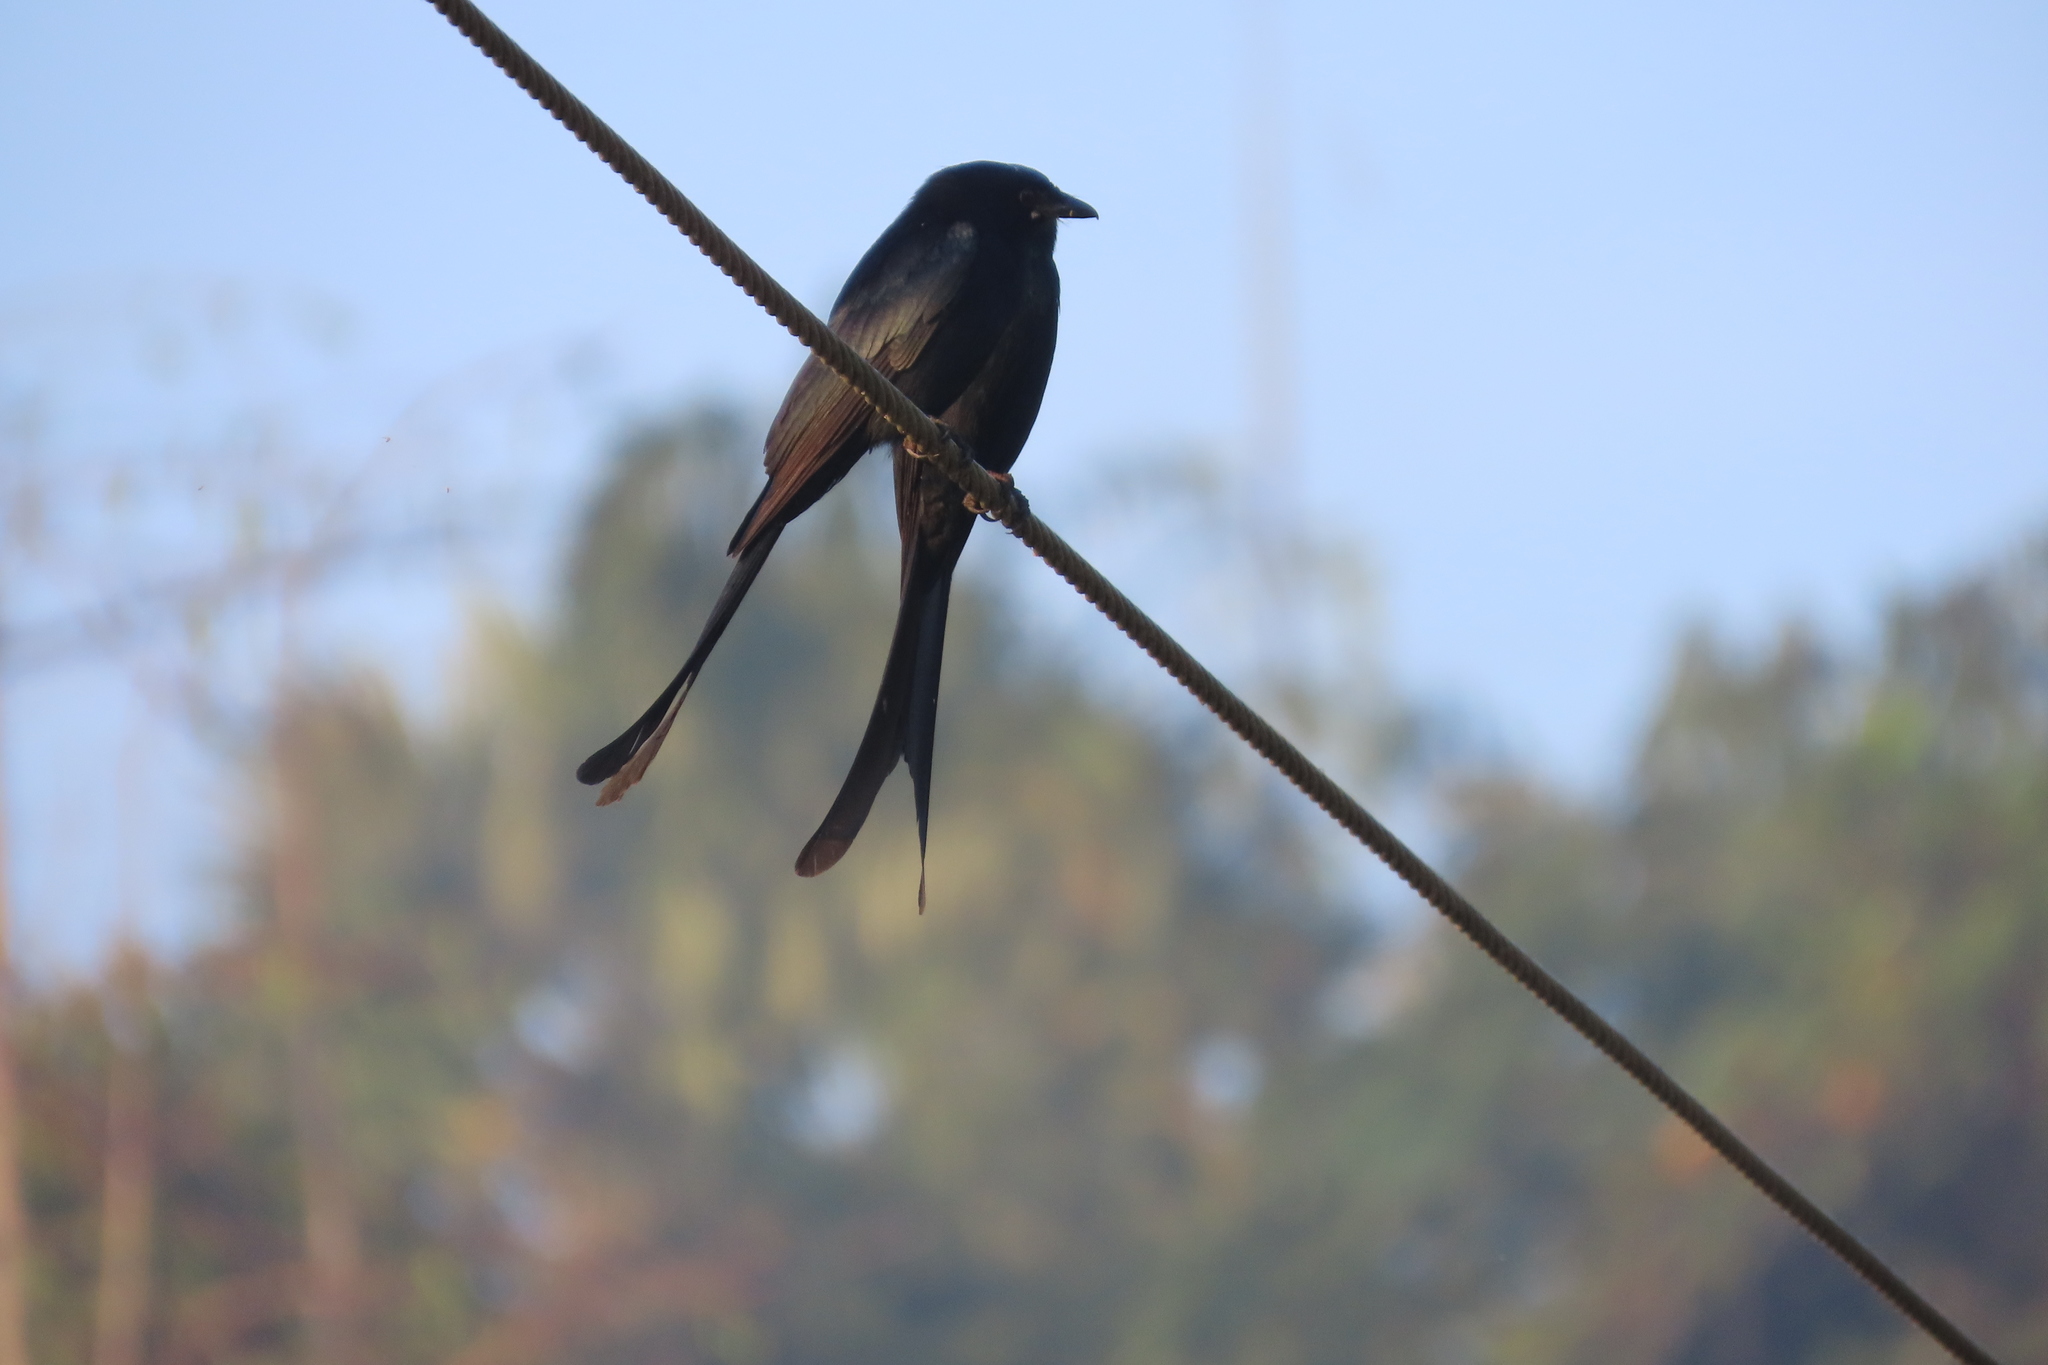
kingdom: Animalia
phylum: Chordata
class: Aves
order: Passeriformes
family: Dicruridae
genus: Dicrurus
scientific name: Dicrurus macrocercus
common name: Black drongo
